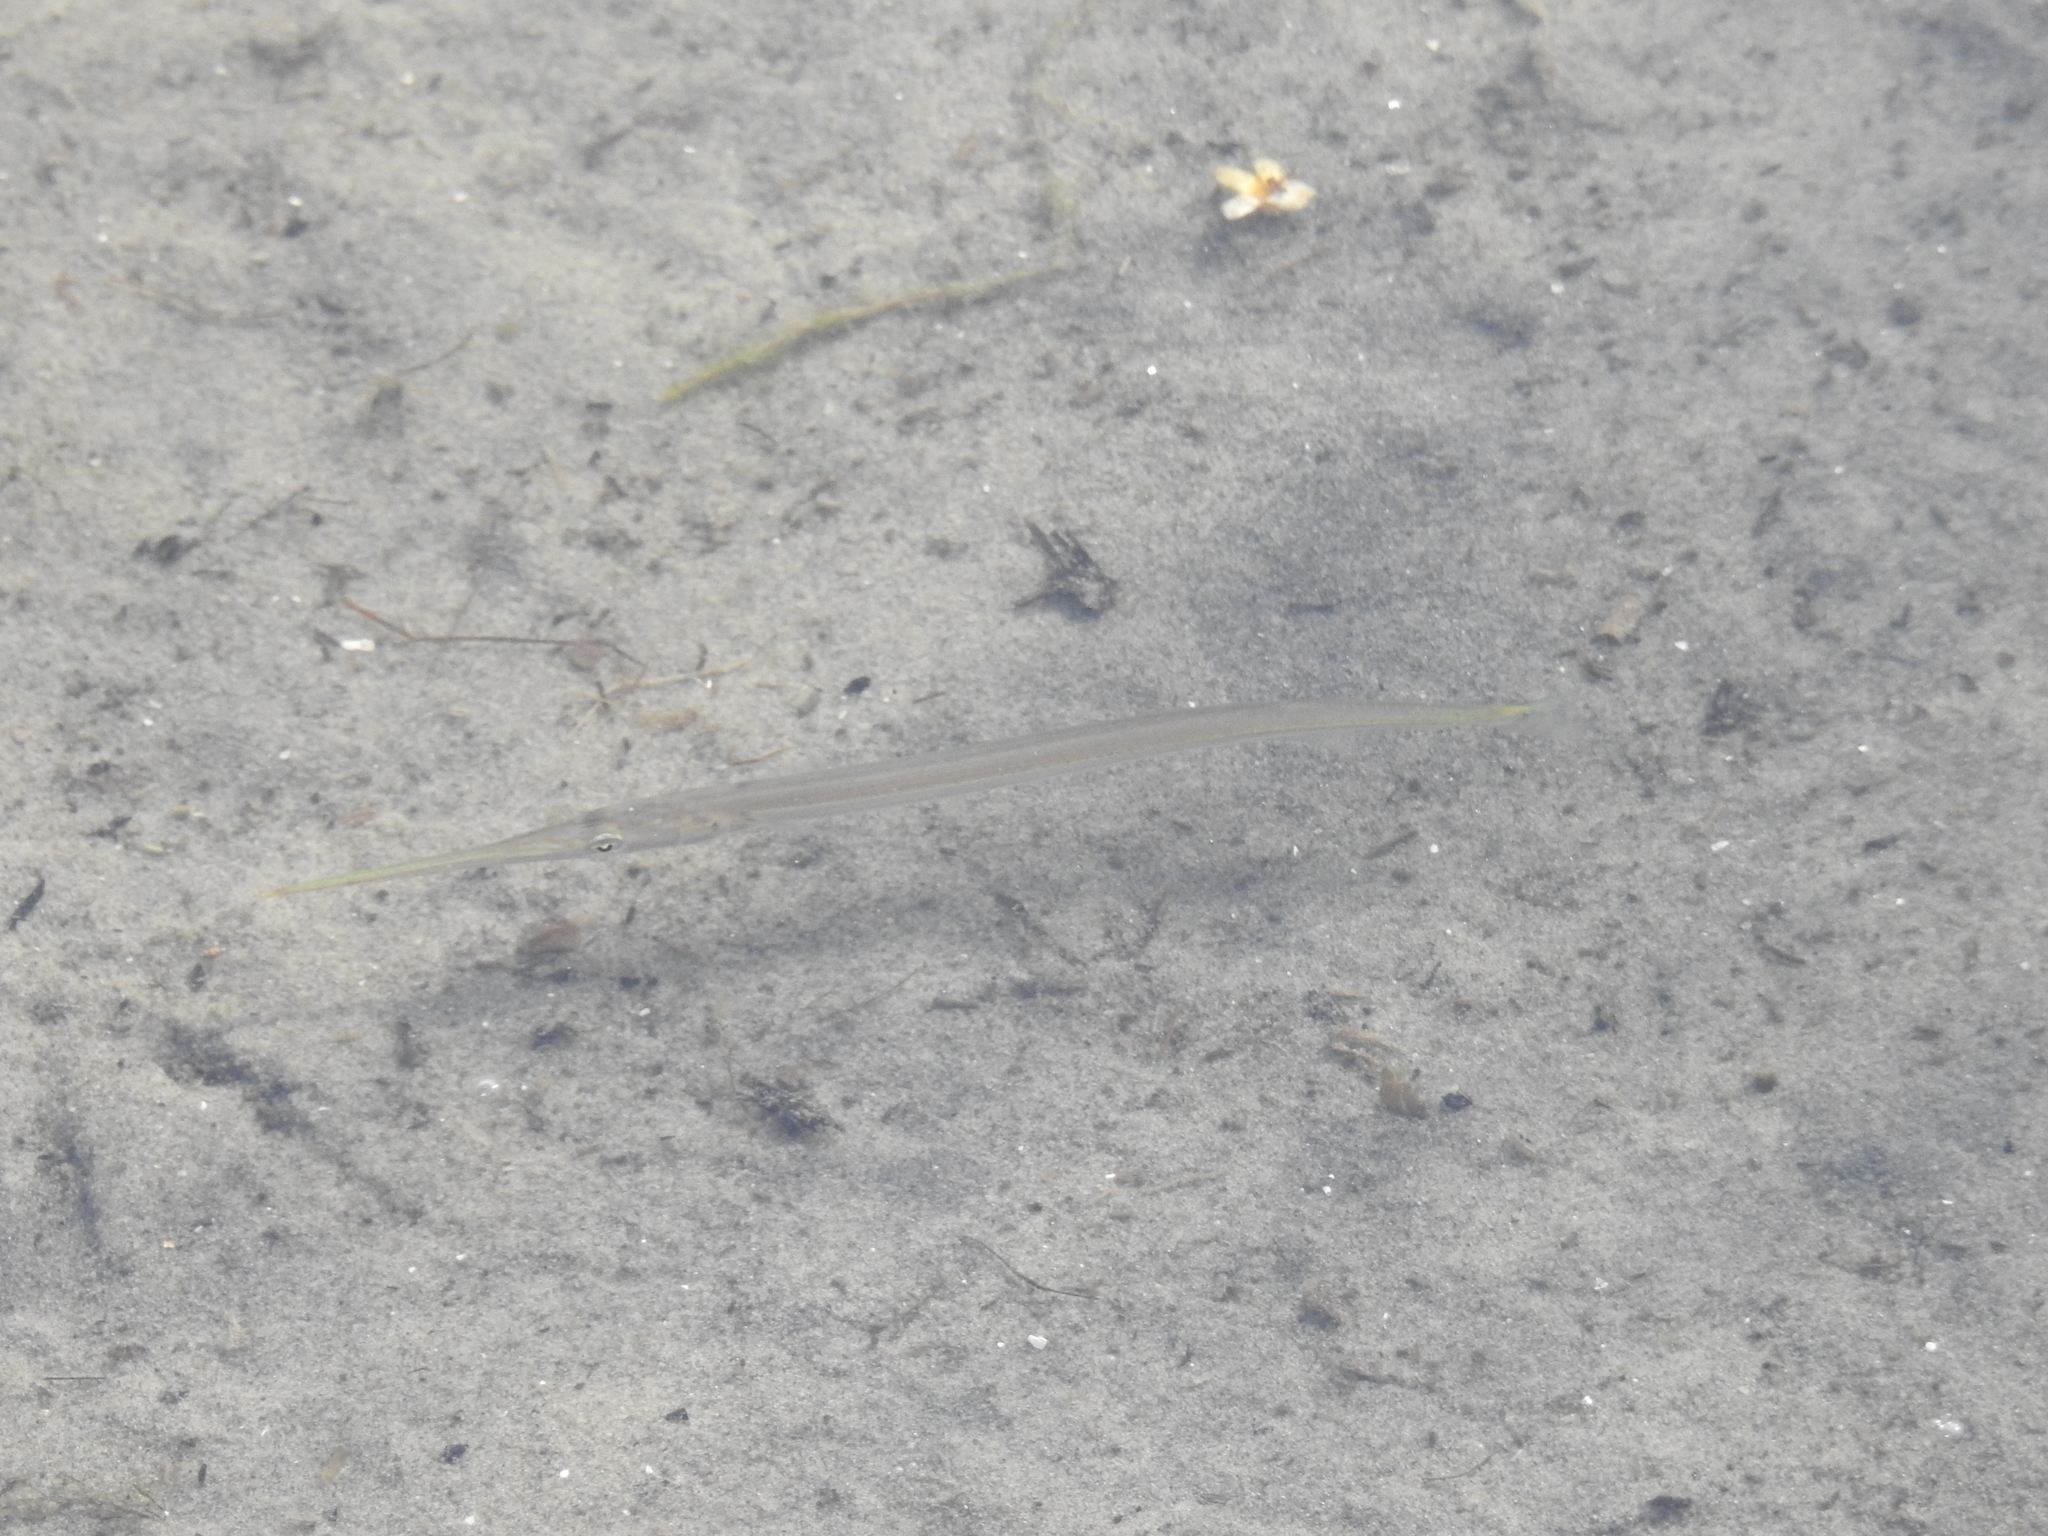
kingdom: Animalia
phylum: Chordata
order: Beloniformes
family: Belonidae
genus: Strongylura
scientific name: Strongylura marina
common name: Atlantic needlefish
